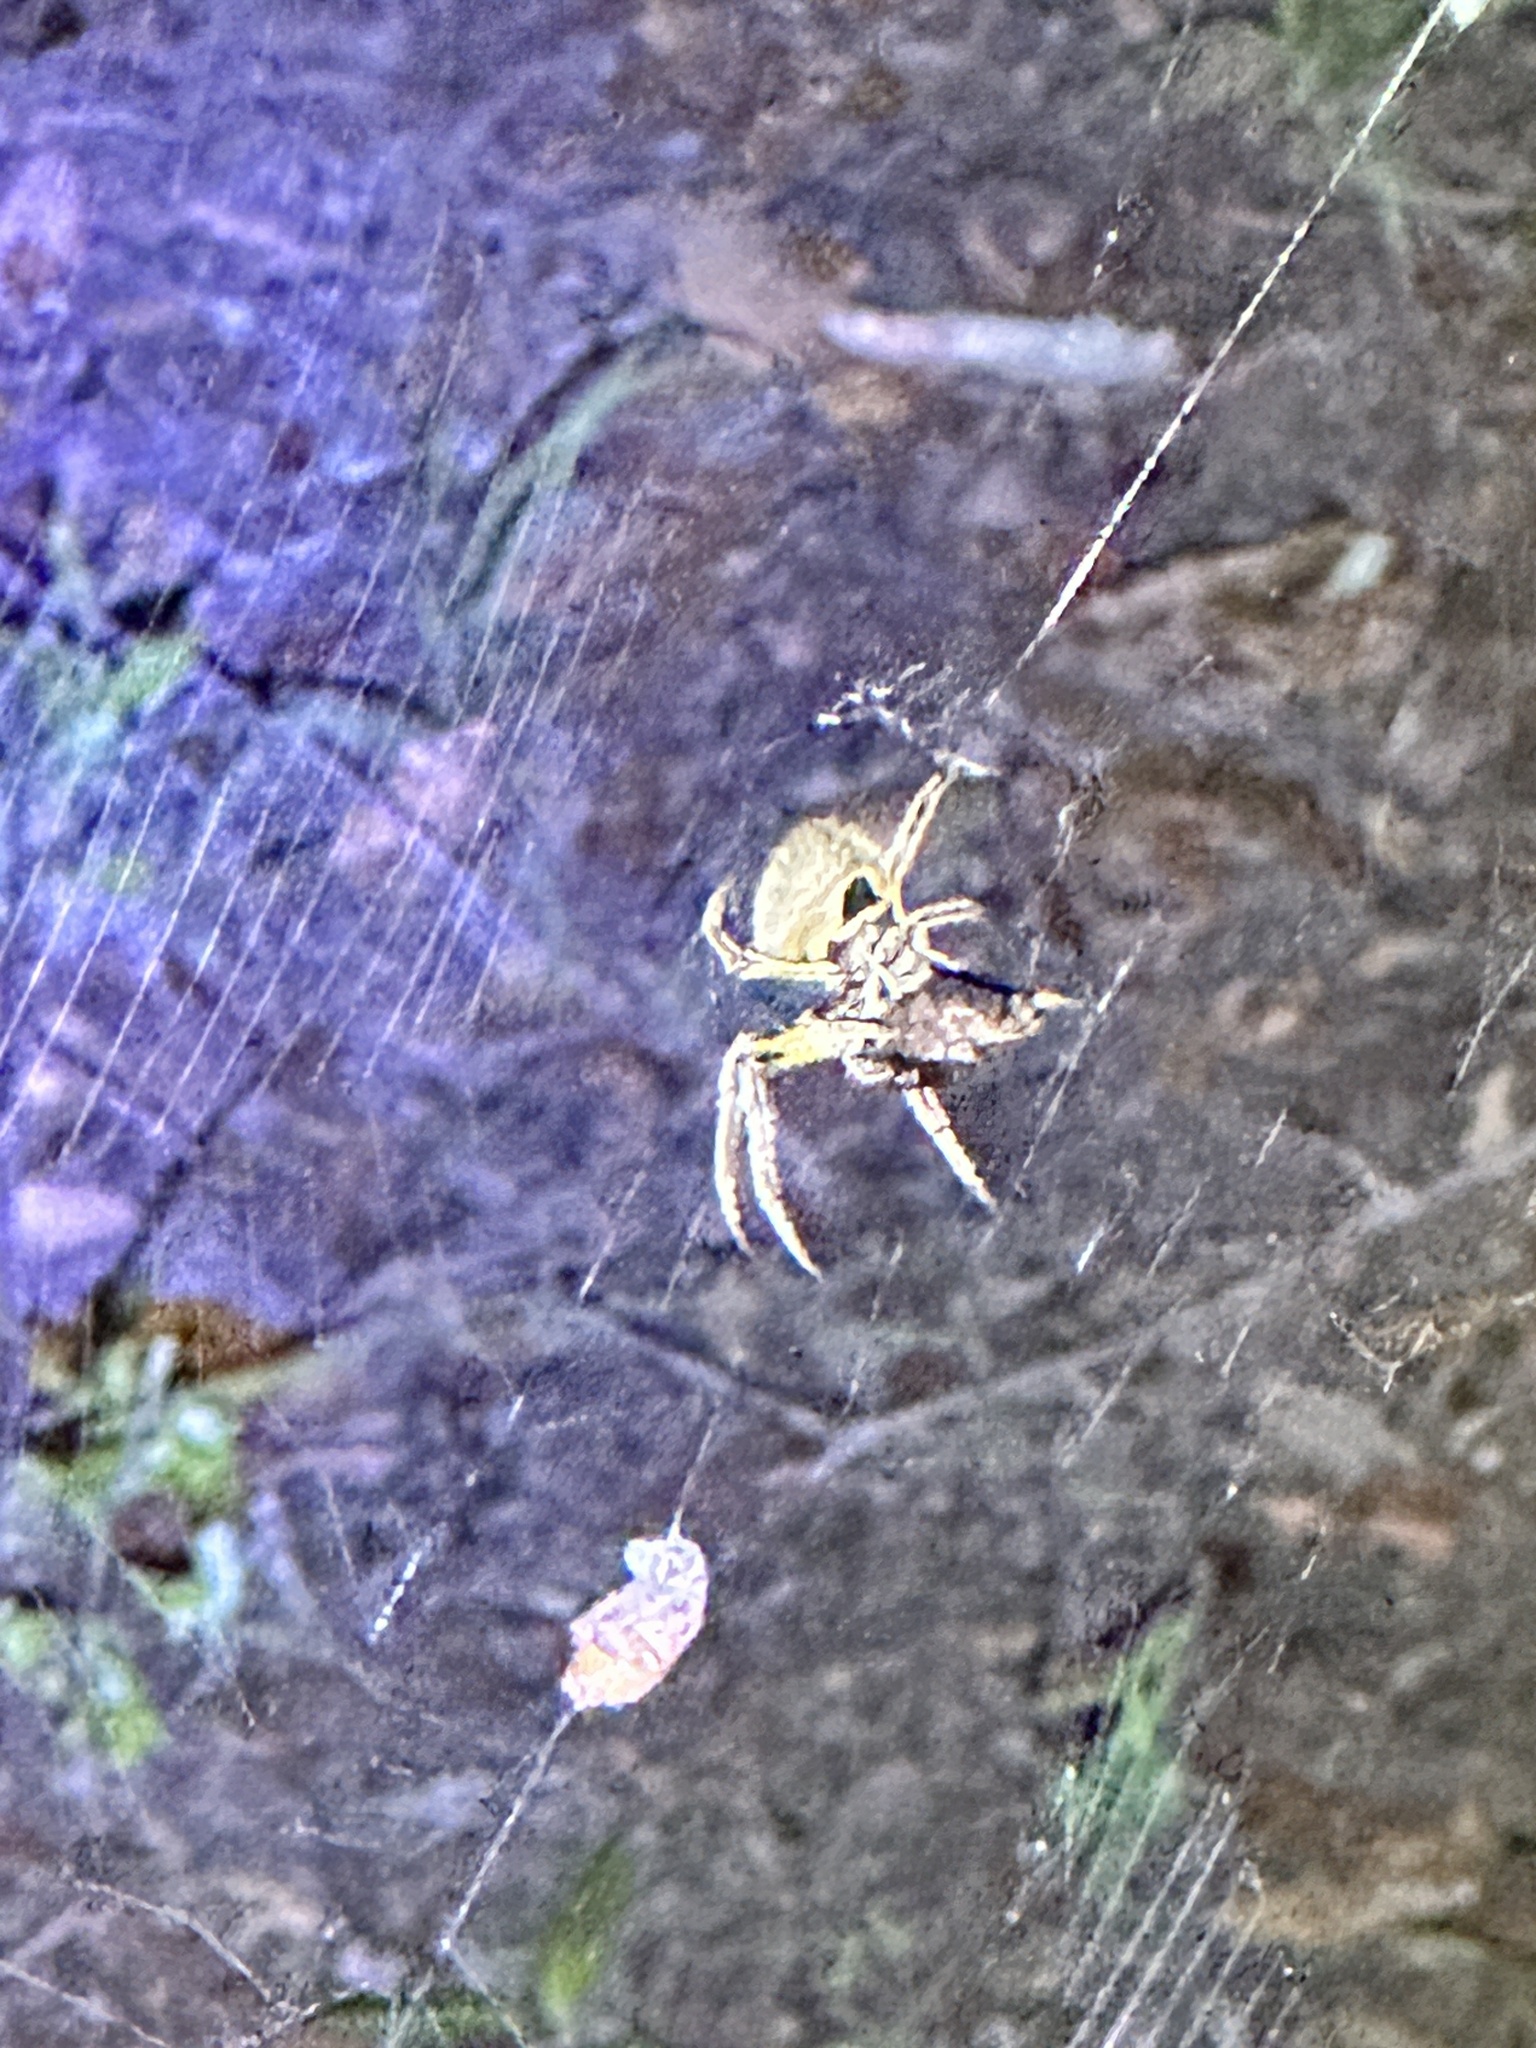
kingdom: Animalia
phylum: Arthropoda
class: Arachnida
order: Araneae
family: Araneidae
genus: Eriophora
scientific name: Eriophora ravilla
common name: Orb weavers
